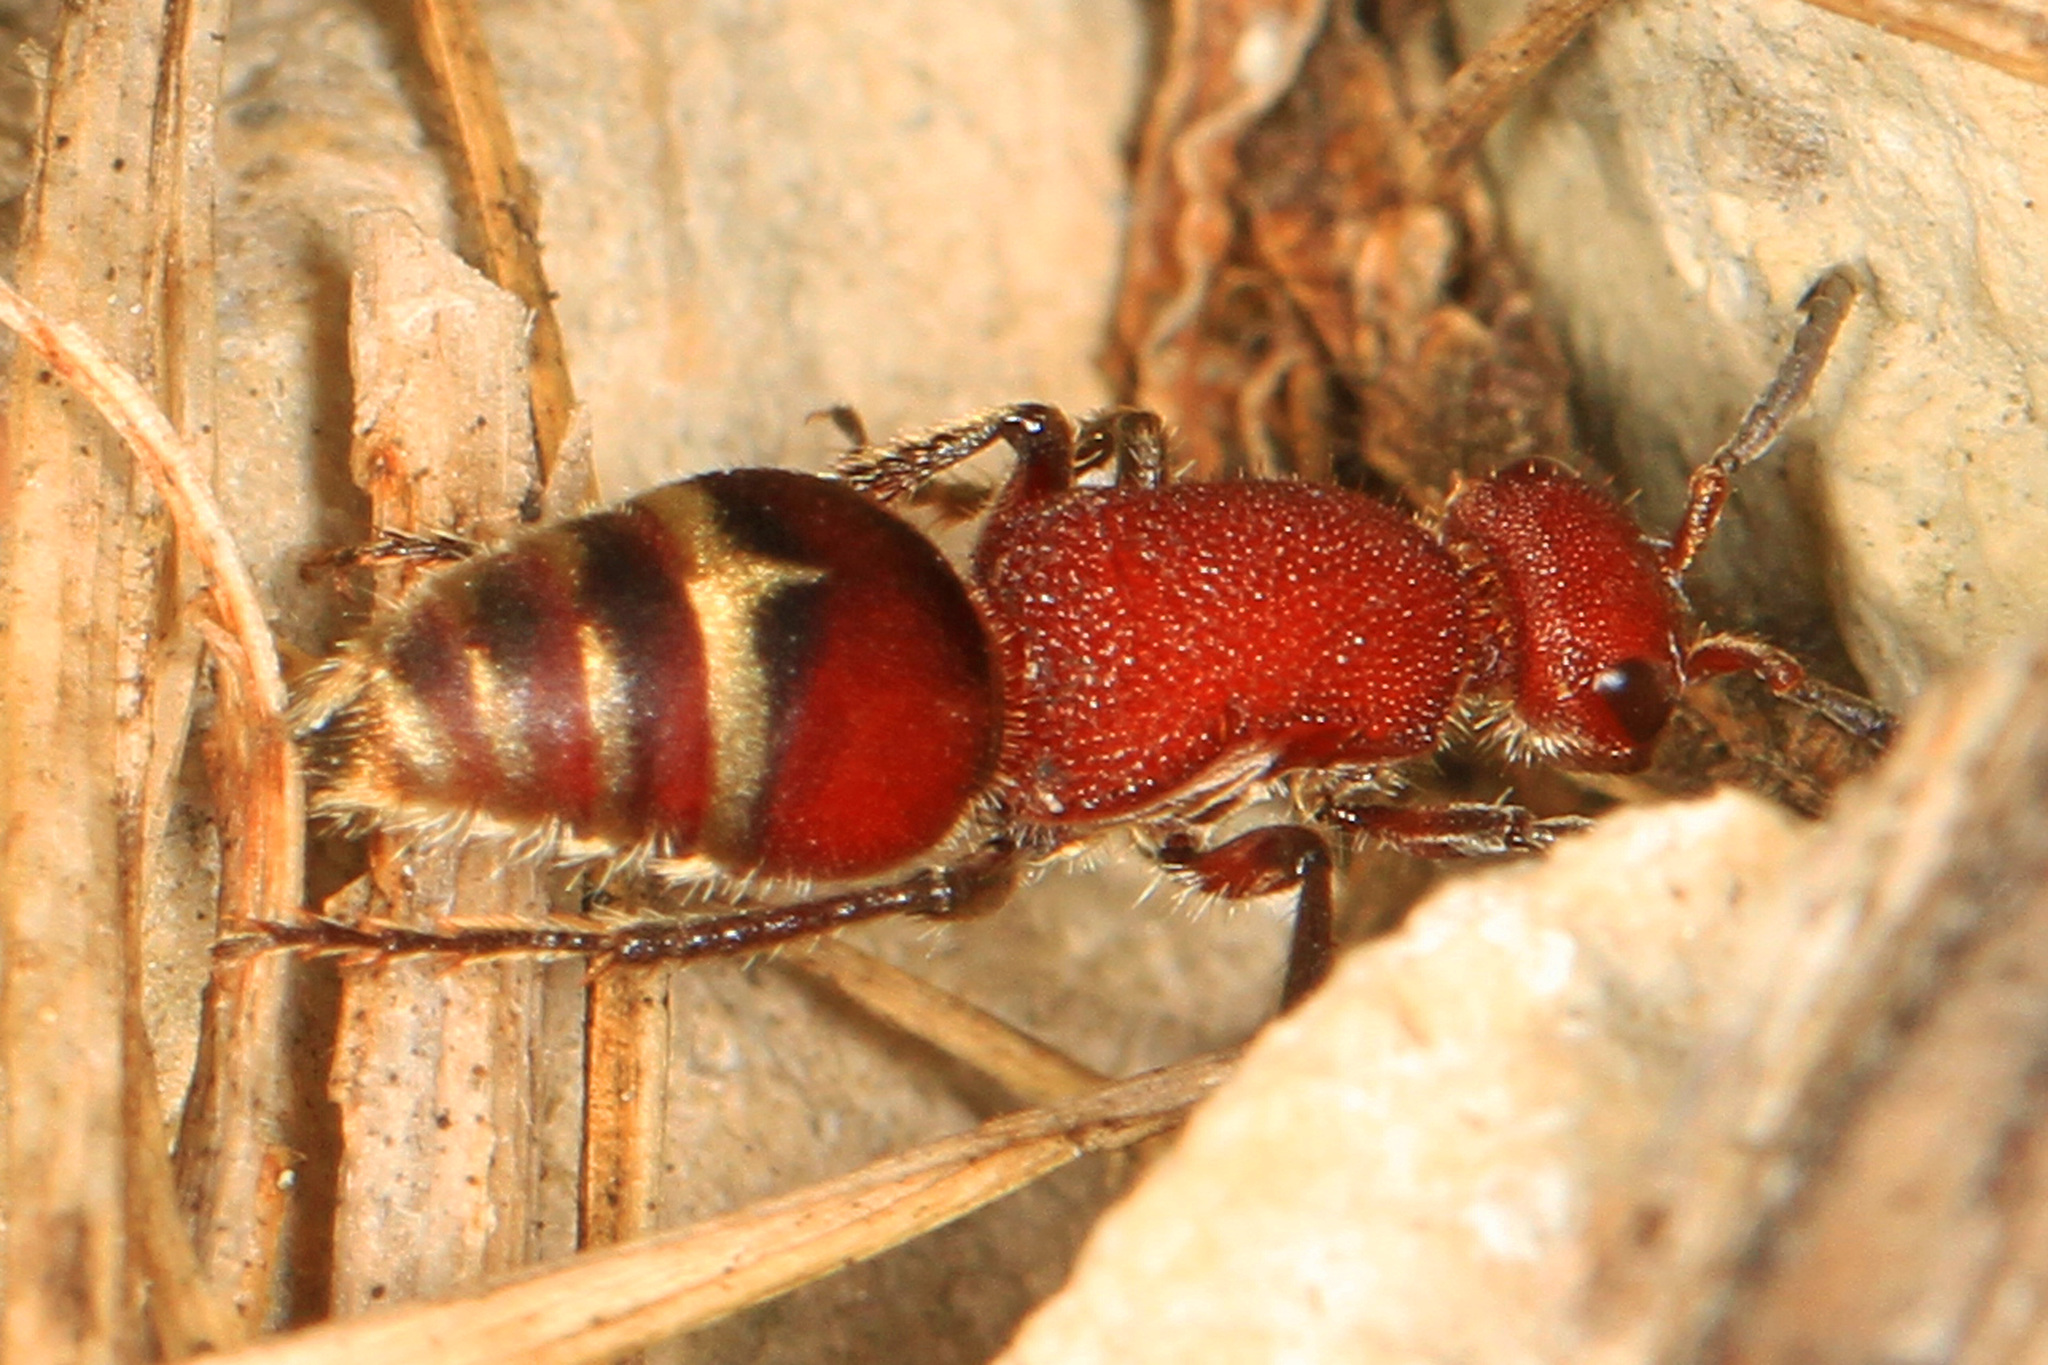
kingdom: Animalia
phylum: Arthropoda
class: Insecta
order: Hymenoptera
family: Mutillidae
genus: Timulla
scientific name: Timulla
